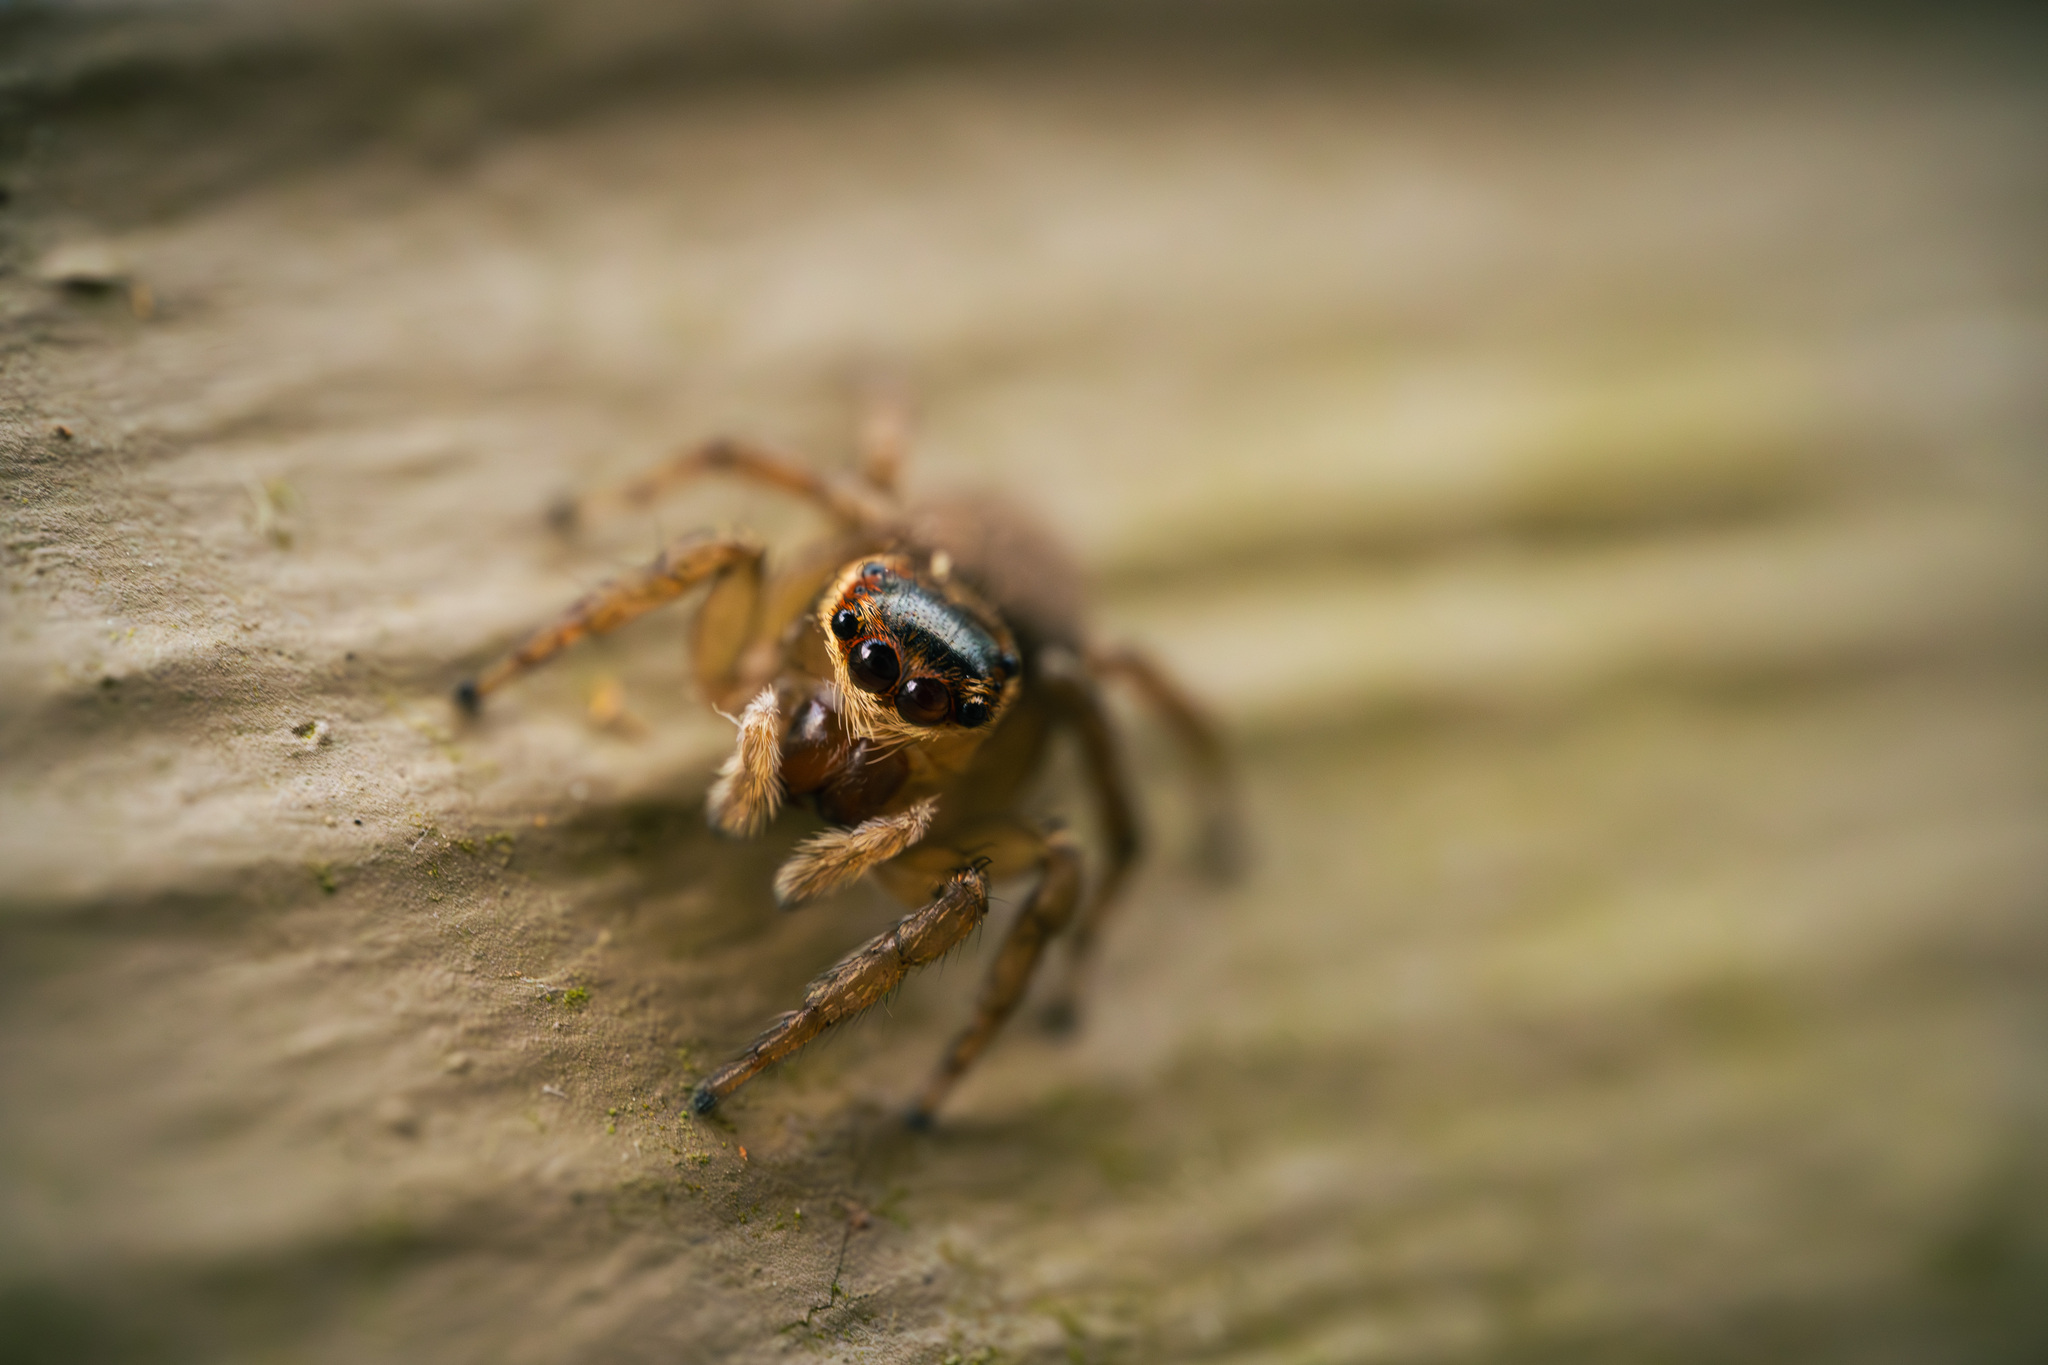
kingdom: Animalia
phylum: Arthropoda
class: Arachnida
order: Araneae
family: Salticidae
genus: Maratus
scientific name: Maratus griseus
